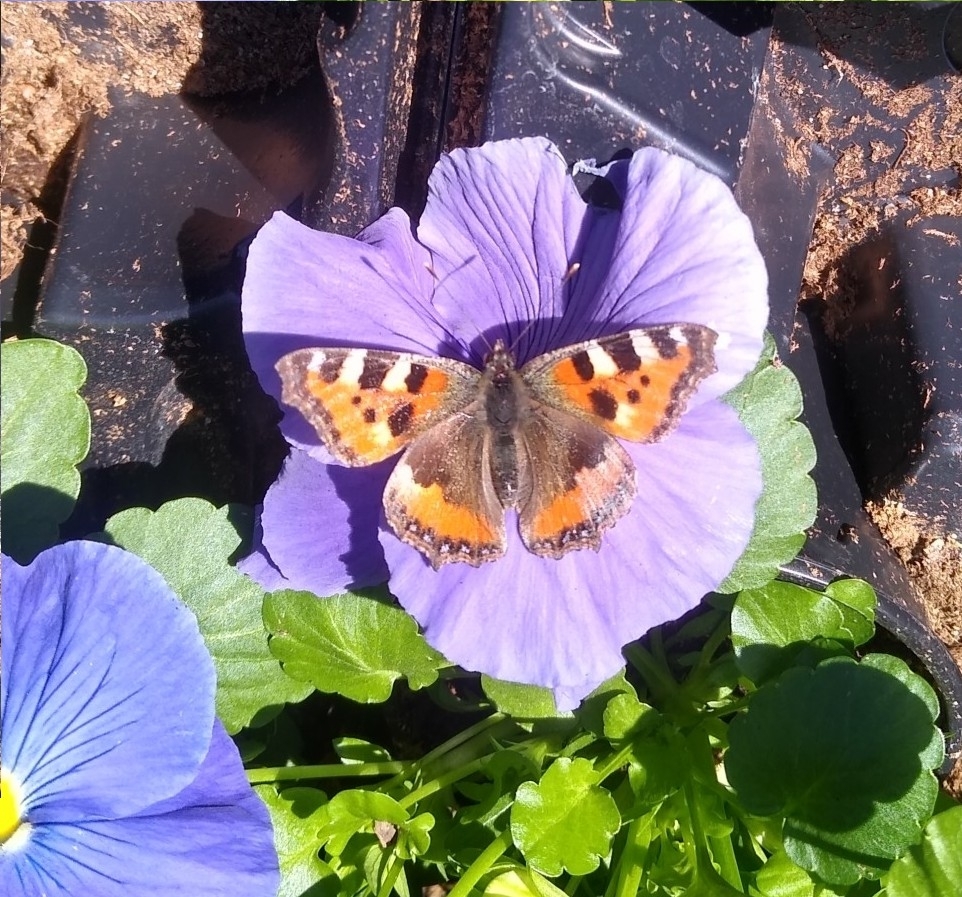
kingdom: Animalia
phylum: Arthropoda
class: Insecta
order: Lepidoptera
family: Nymphalidae
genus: Aglais
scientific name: Aglais urticae
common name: Small tortoiseshell
